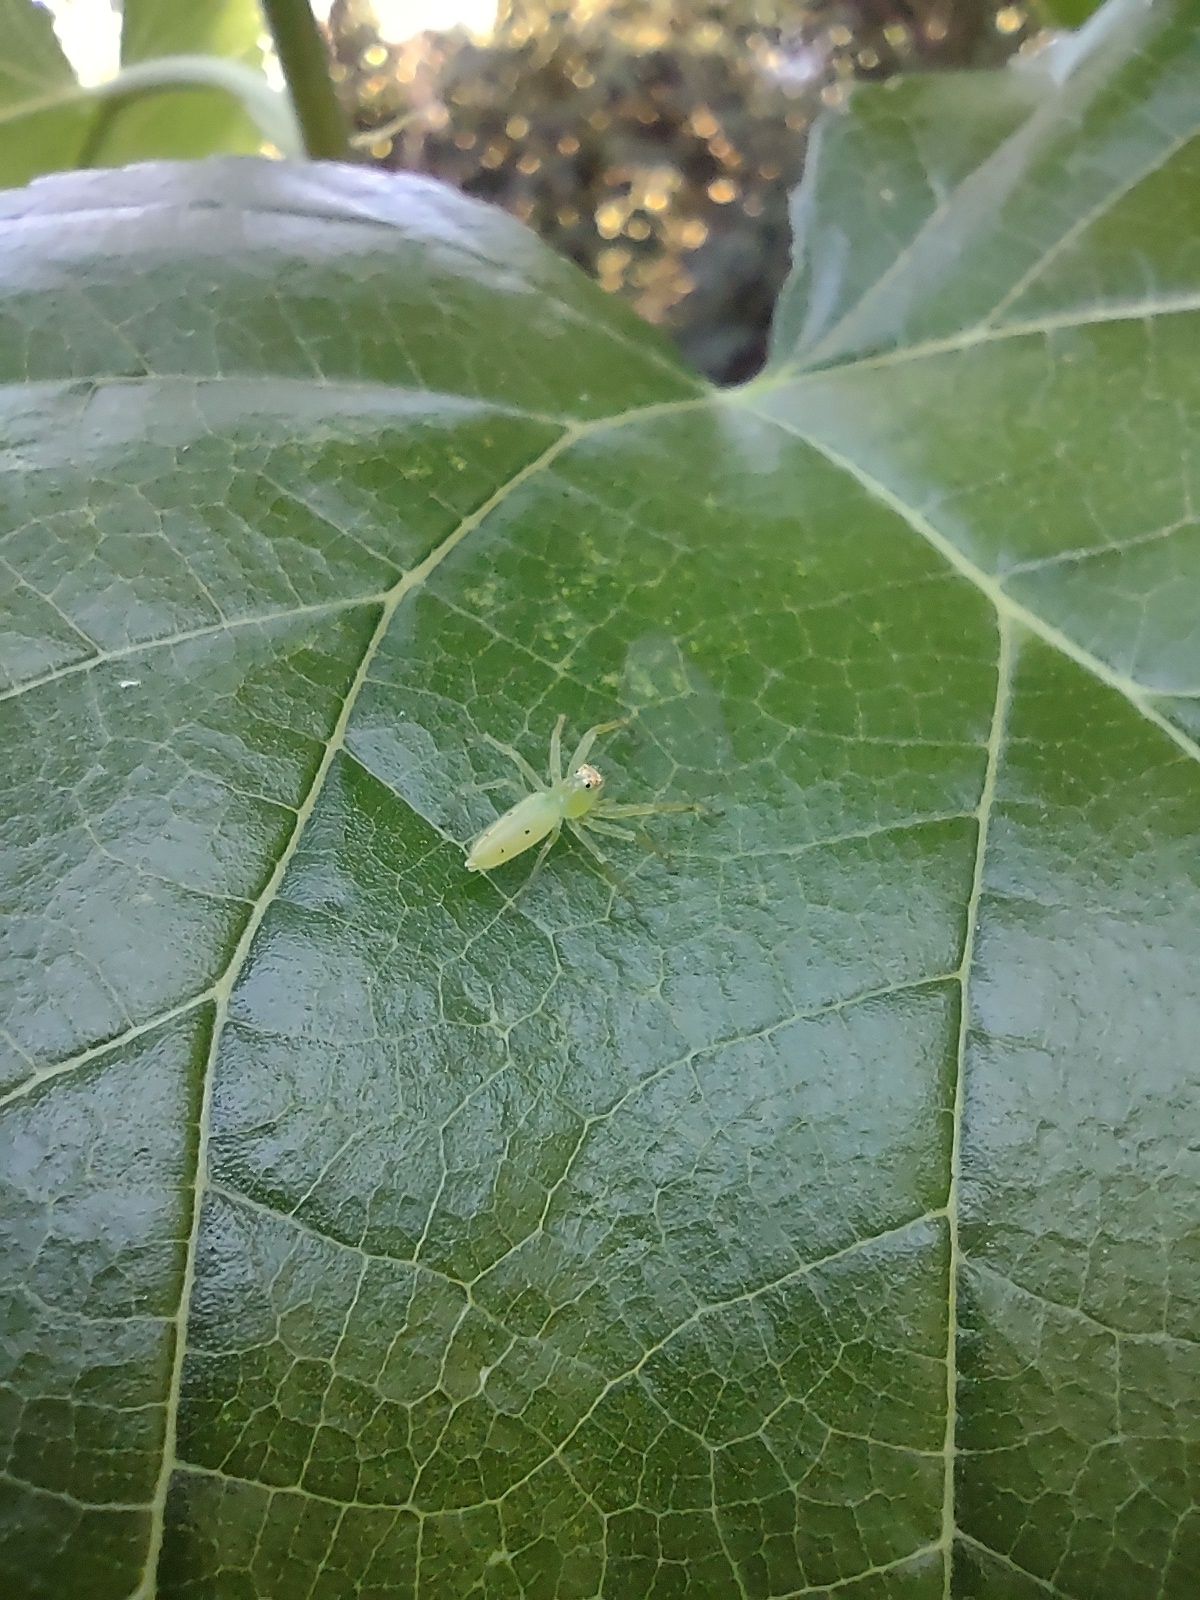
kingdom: Animalia
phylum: Arthropoda
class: Arachnida
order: Araneae
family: Salticidae
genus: Lyssomanes
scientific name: Lyssomanes pauper
